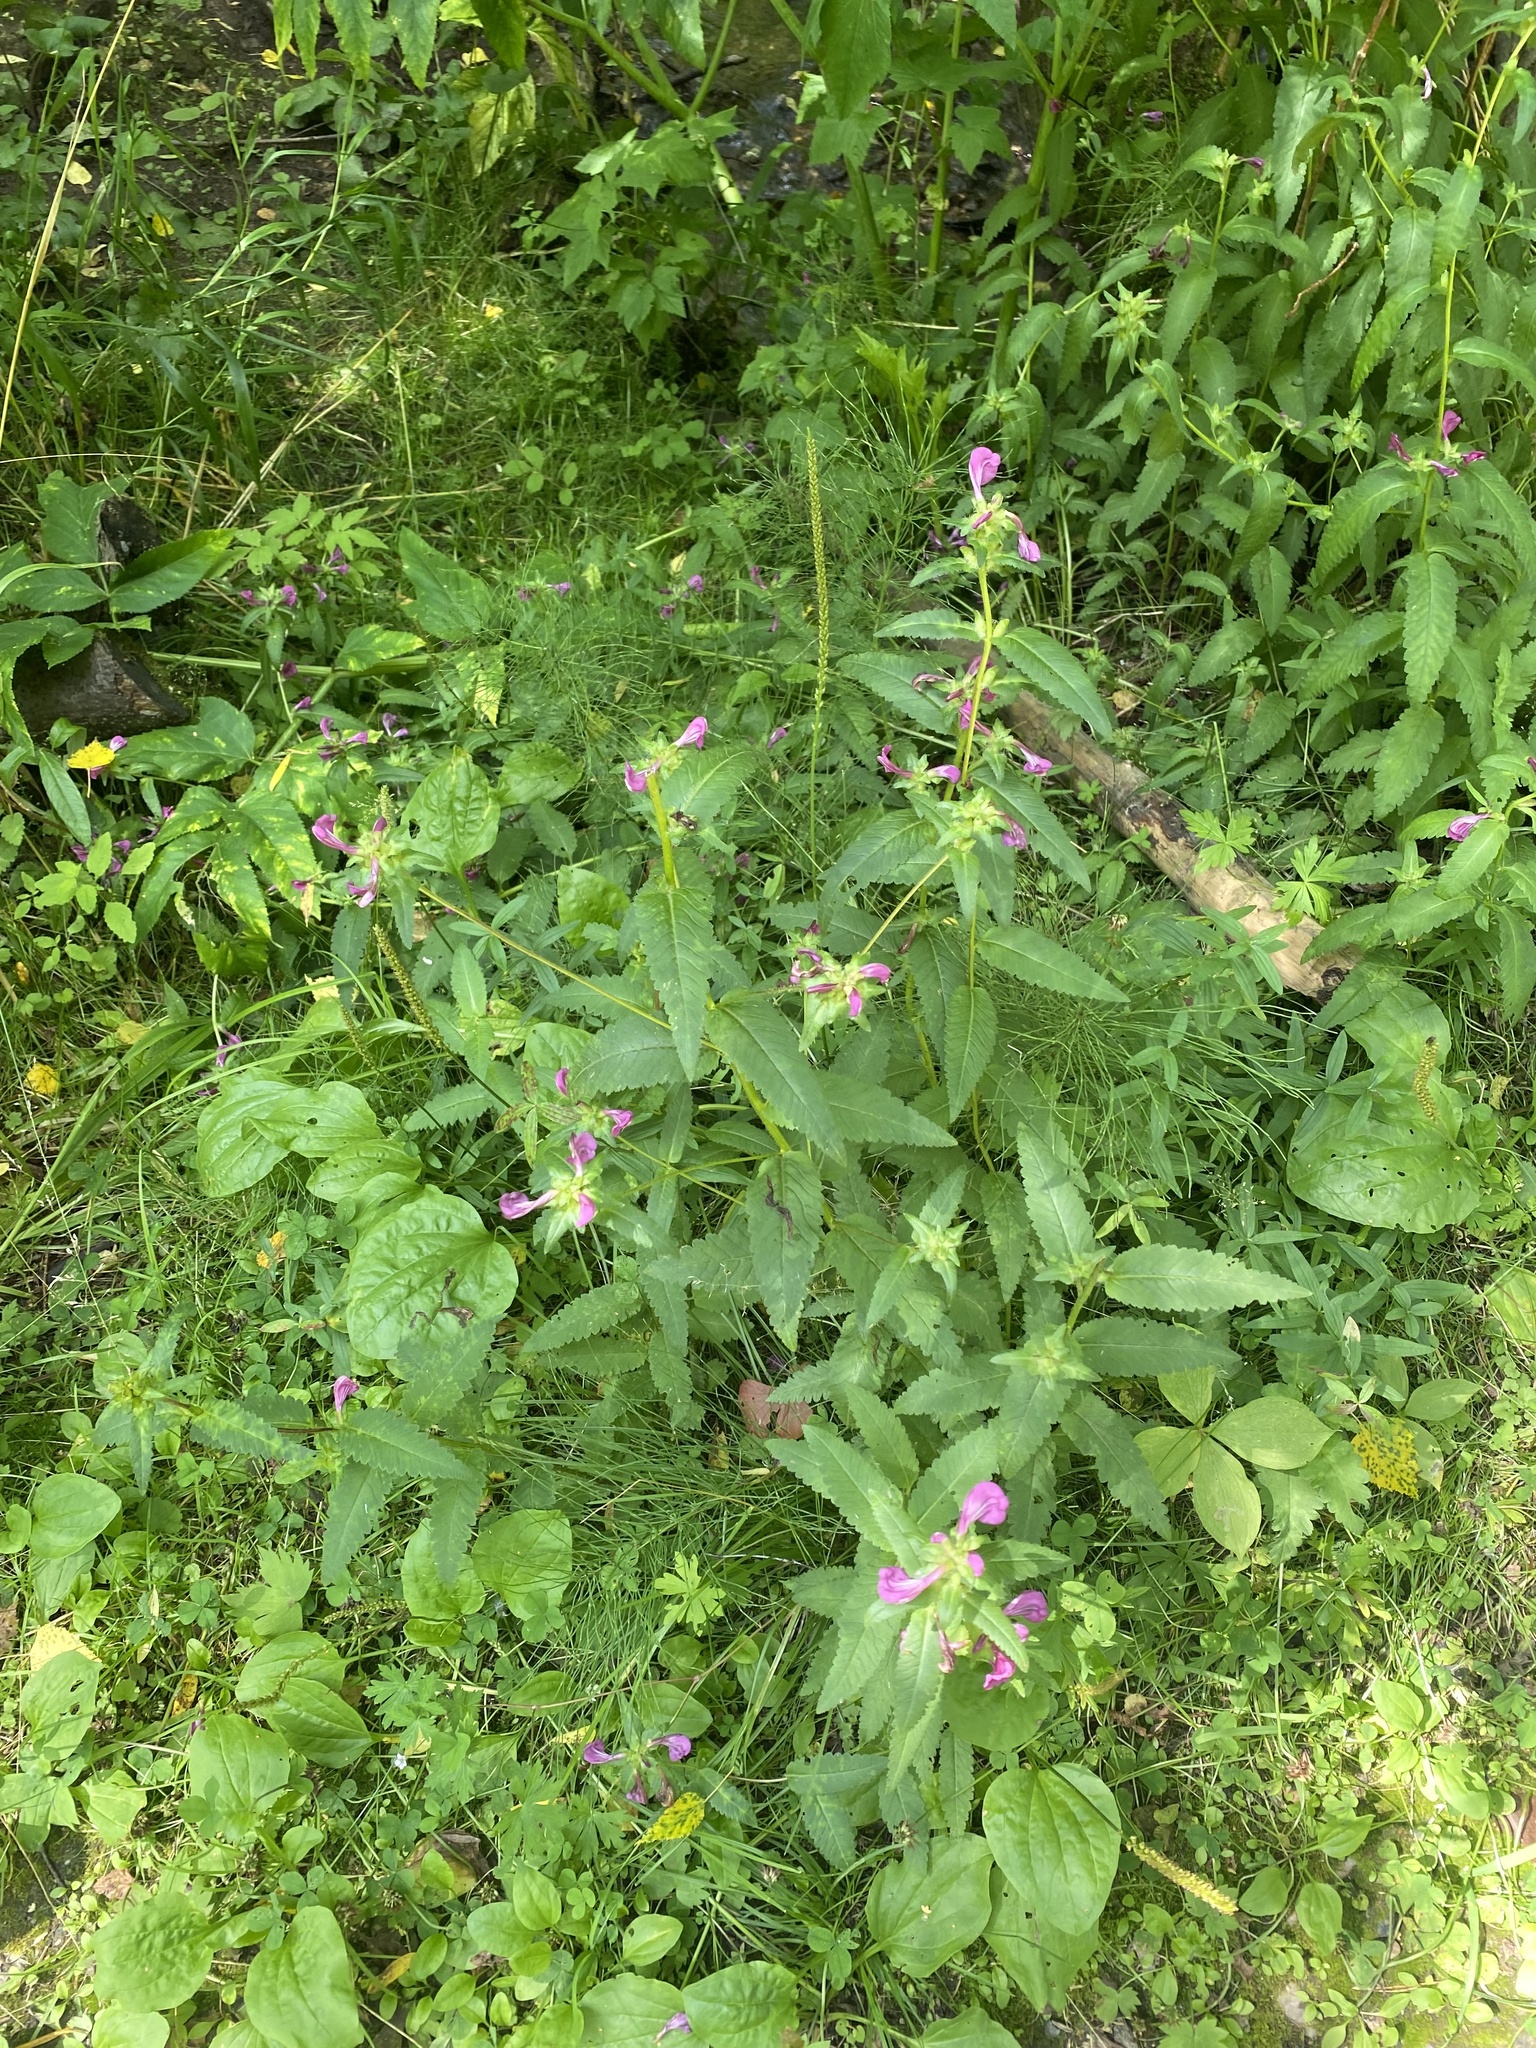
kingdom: Plantae
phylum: Tracheophyta
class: Magnoliopsida
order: Lamiales
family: Orobanchaceae
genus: Pedicularis
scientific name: Pedicularis resupinata
